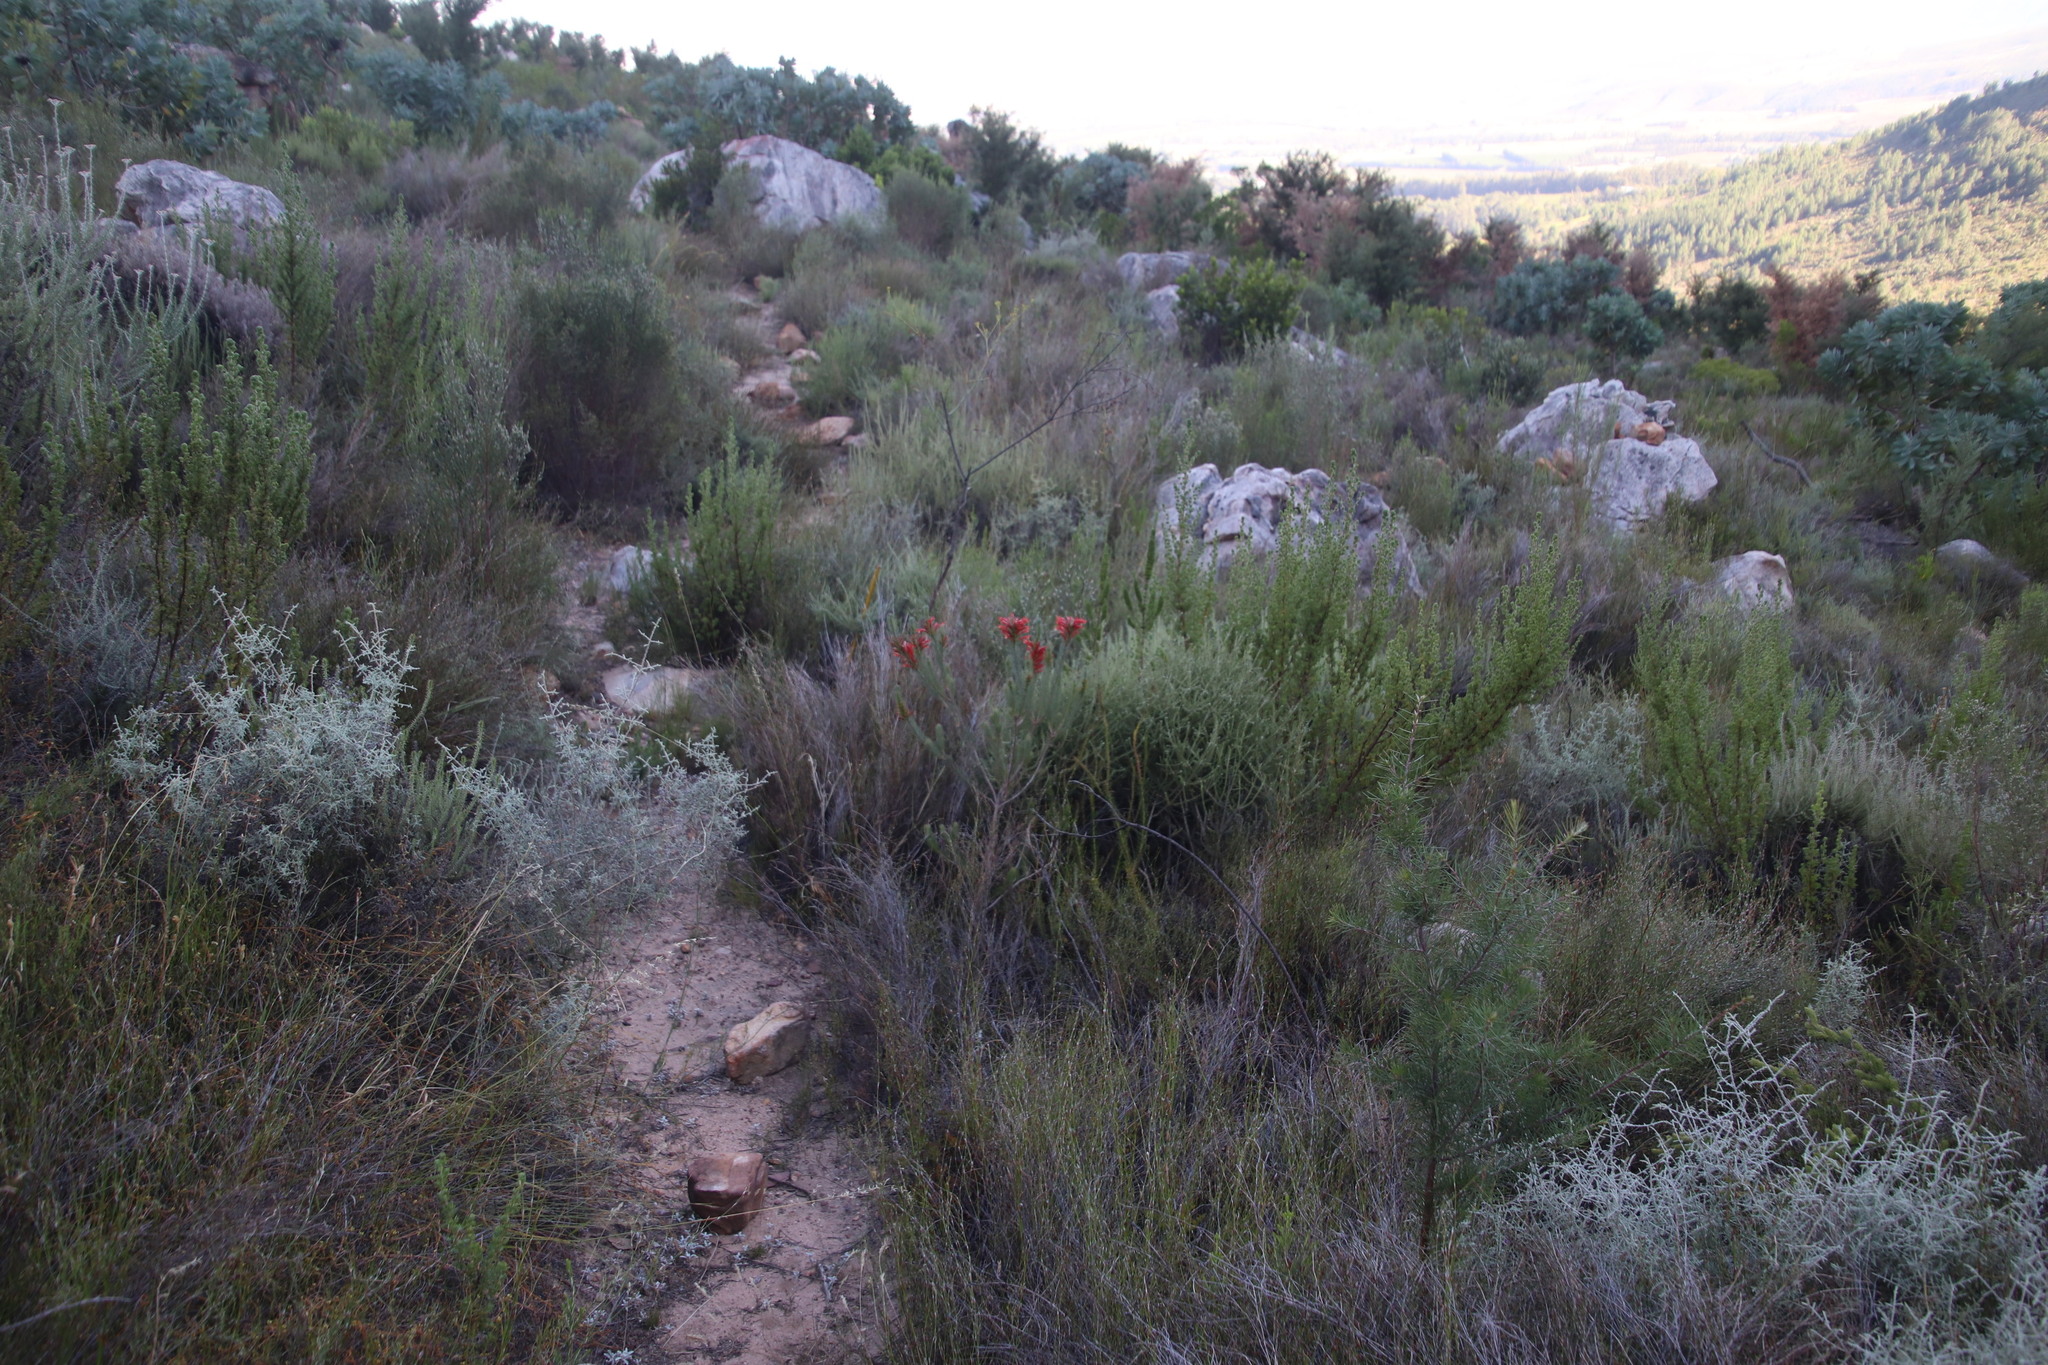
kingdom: Plantae
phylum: Tracheophyta
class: Magnoliopsida
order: Ericales
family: Ericaceae
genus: Erica
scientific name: Erica grandiflora
